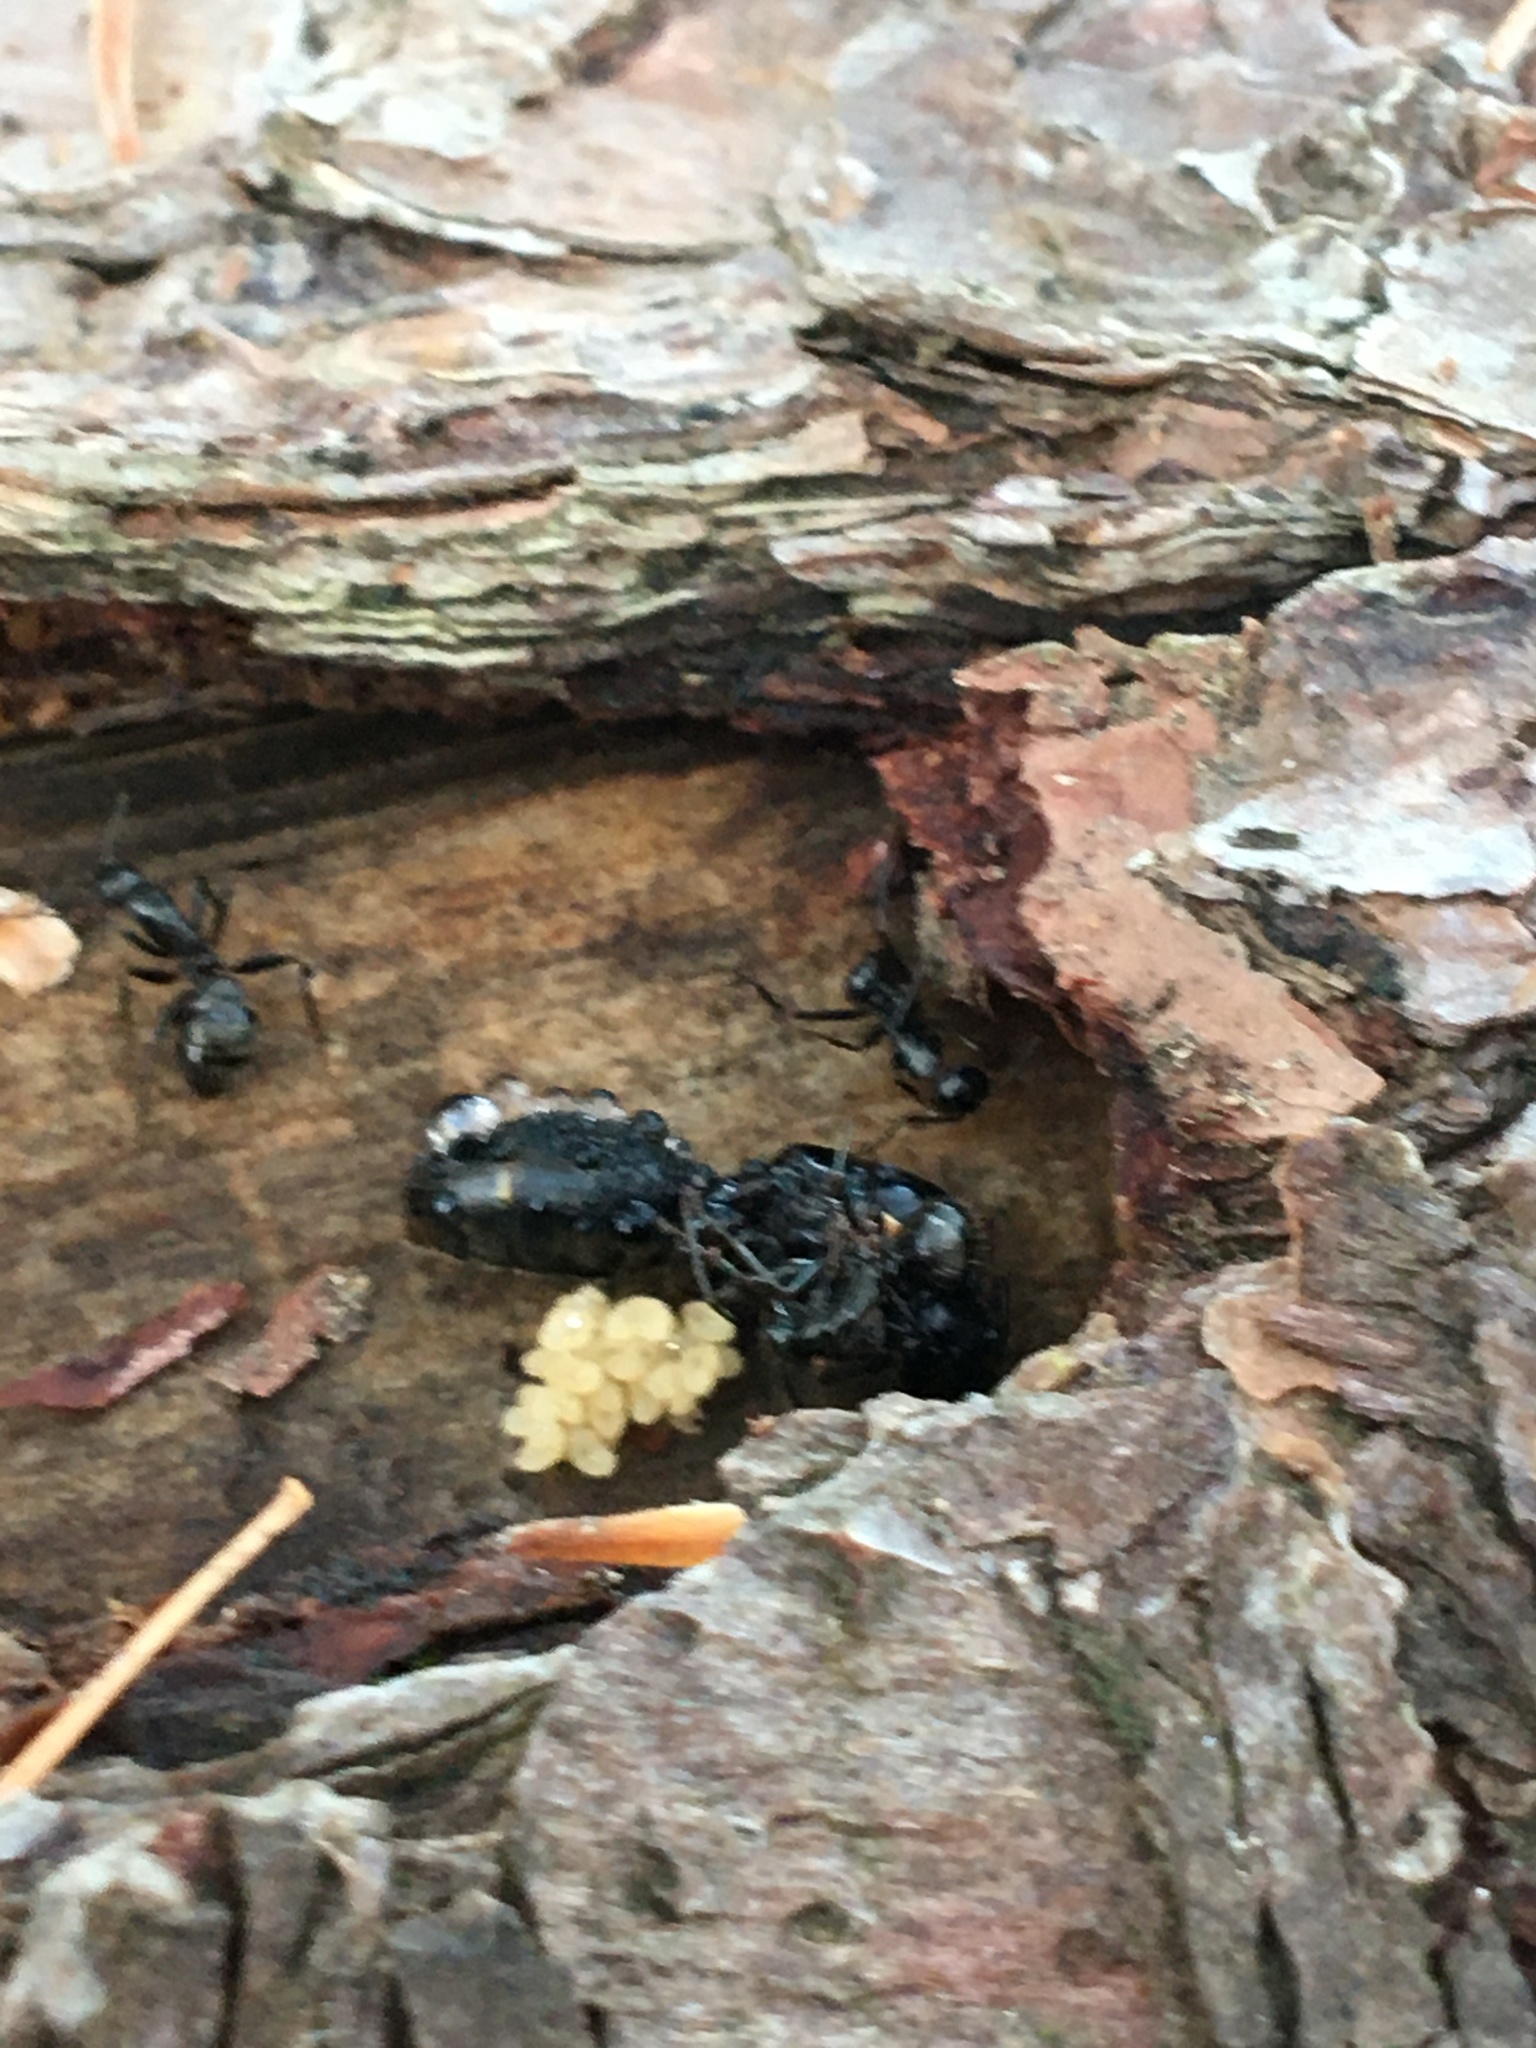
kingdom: Animalia
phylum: Arthropoda
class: Insecta
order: Hymenoptera
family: Formicidae
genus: Camponotus
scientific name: Camponotus pennsylvanicus
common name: Black carpenter ant
